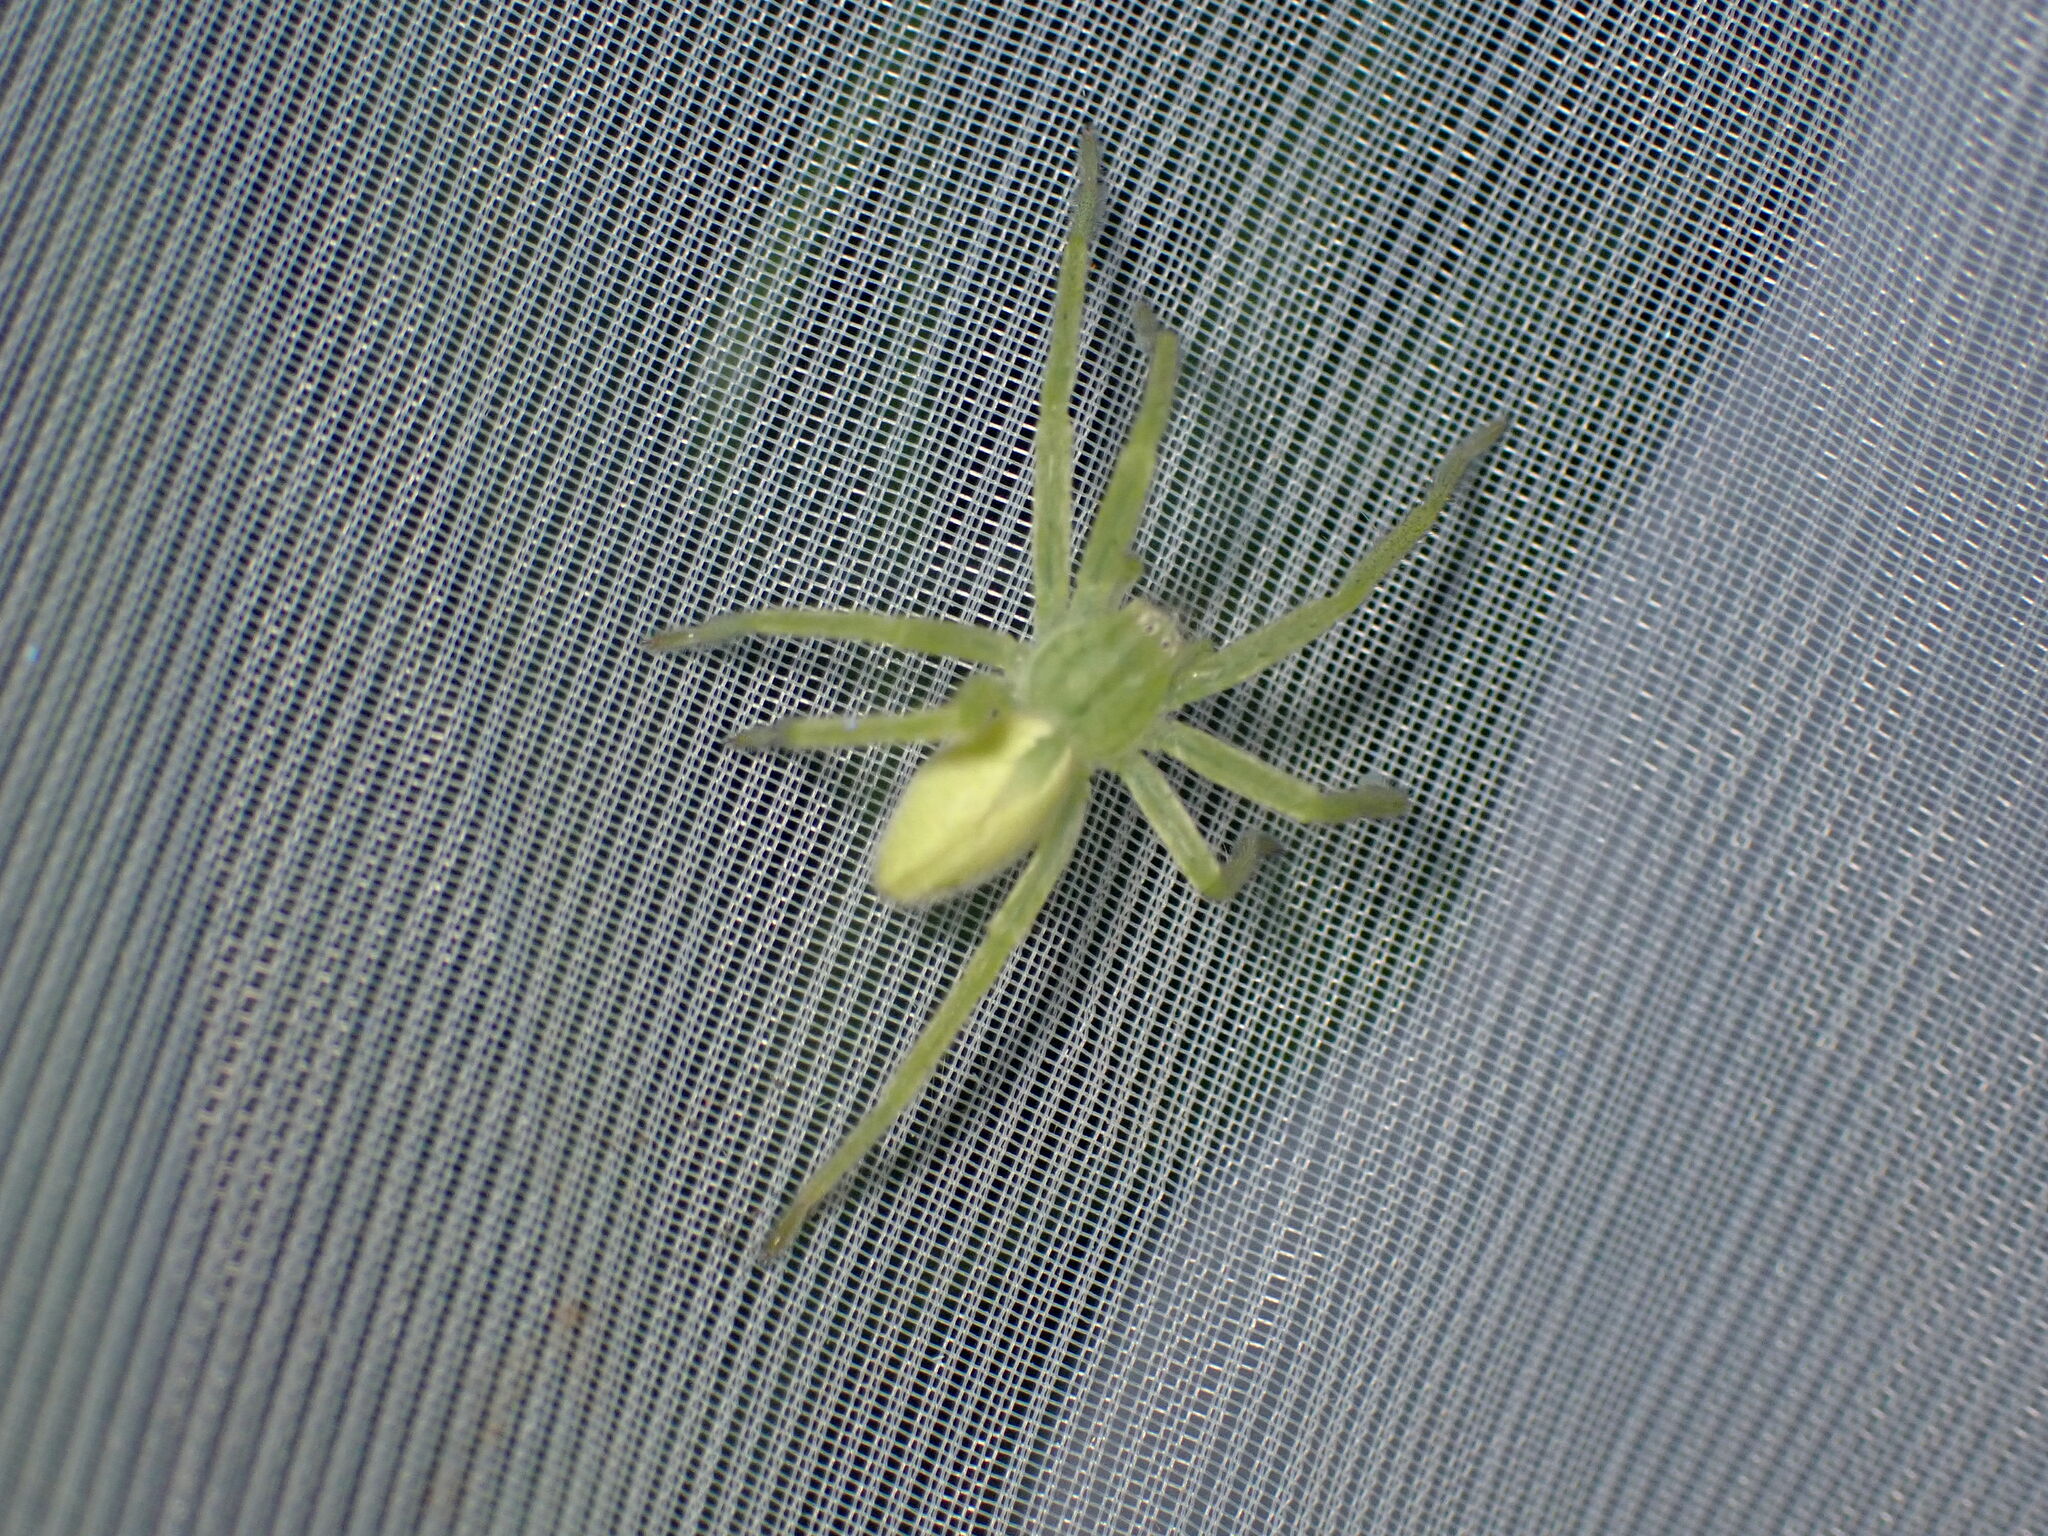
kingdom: Animalia
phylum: Arthropoda
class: Arachnida
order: Araneae
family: Sparassidae
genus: Micrommata
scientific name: Micrommata virescens
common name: Green spider
